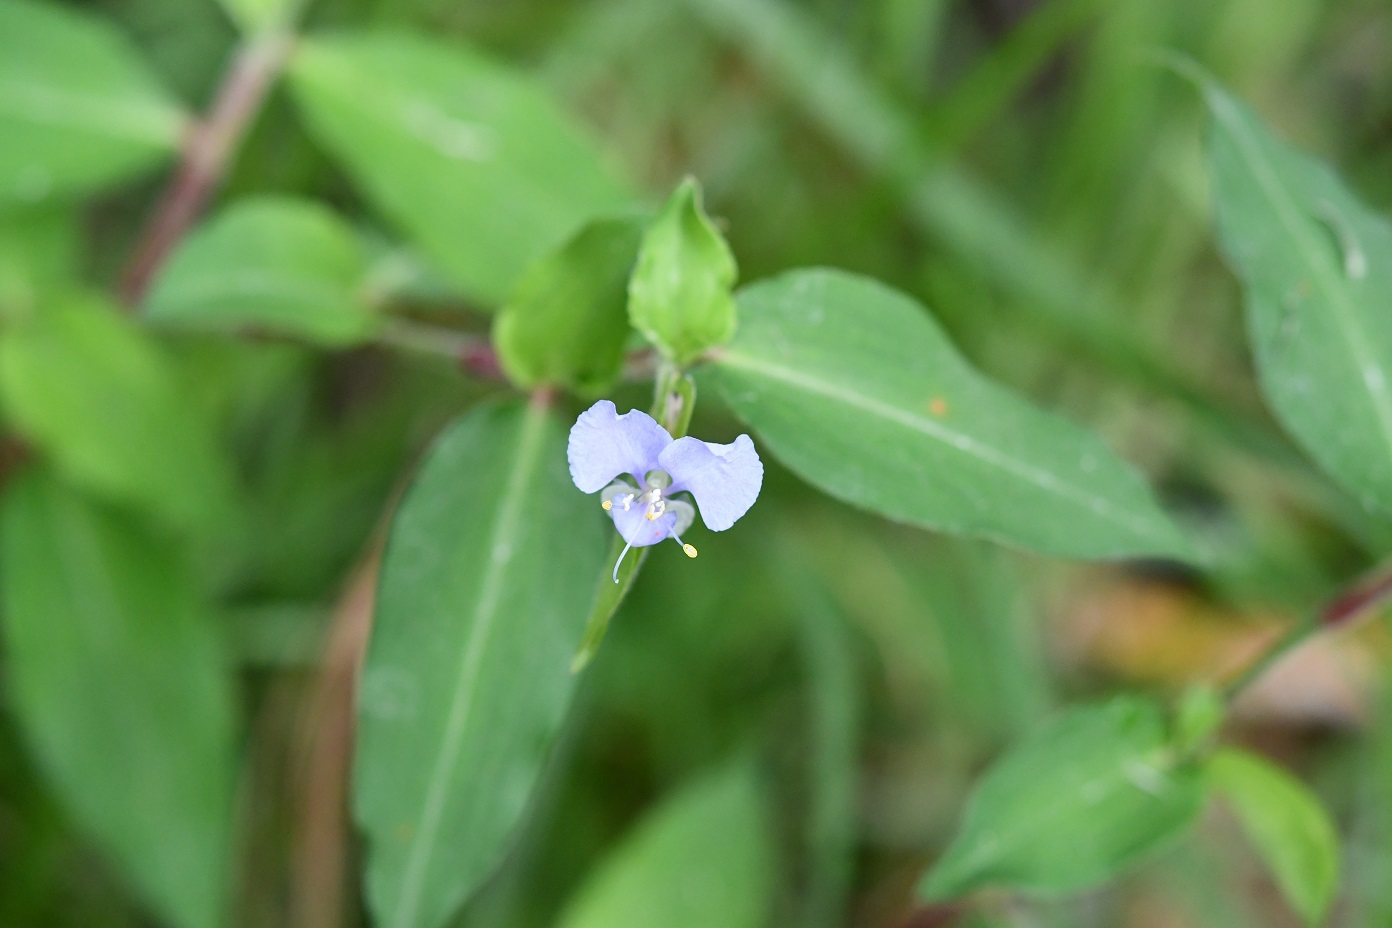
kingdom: Plantae
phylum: Tracheophyta
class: Liliopsida
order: Commelinales
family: Commelinaceae
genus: Commelina
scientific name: Commelina diffusa
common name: Climbing dayflower
